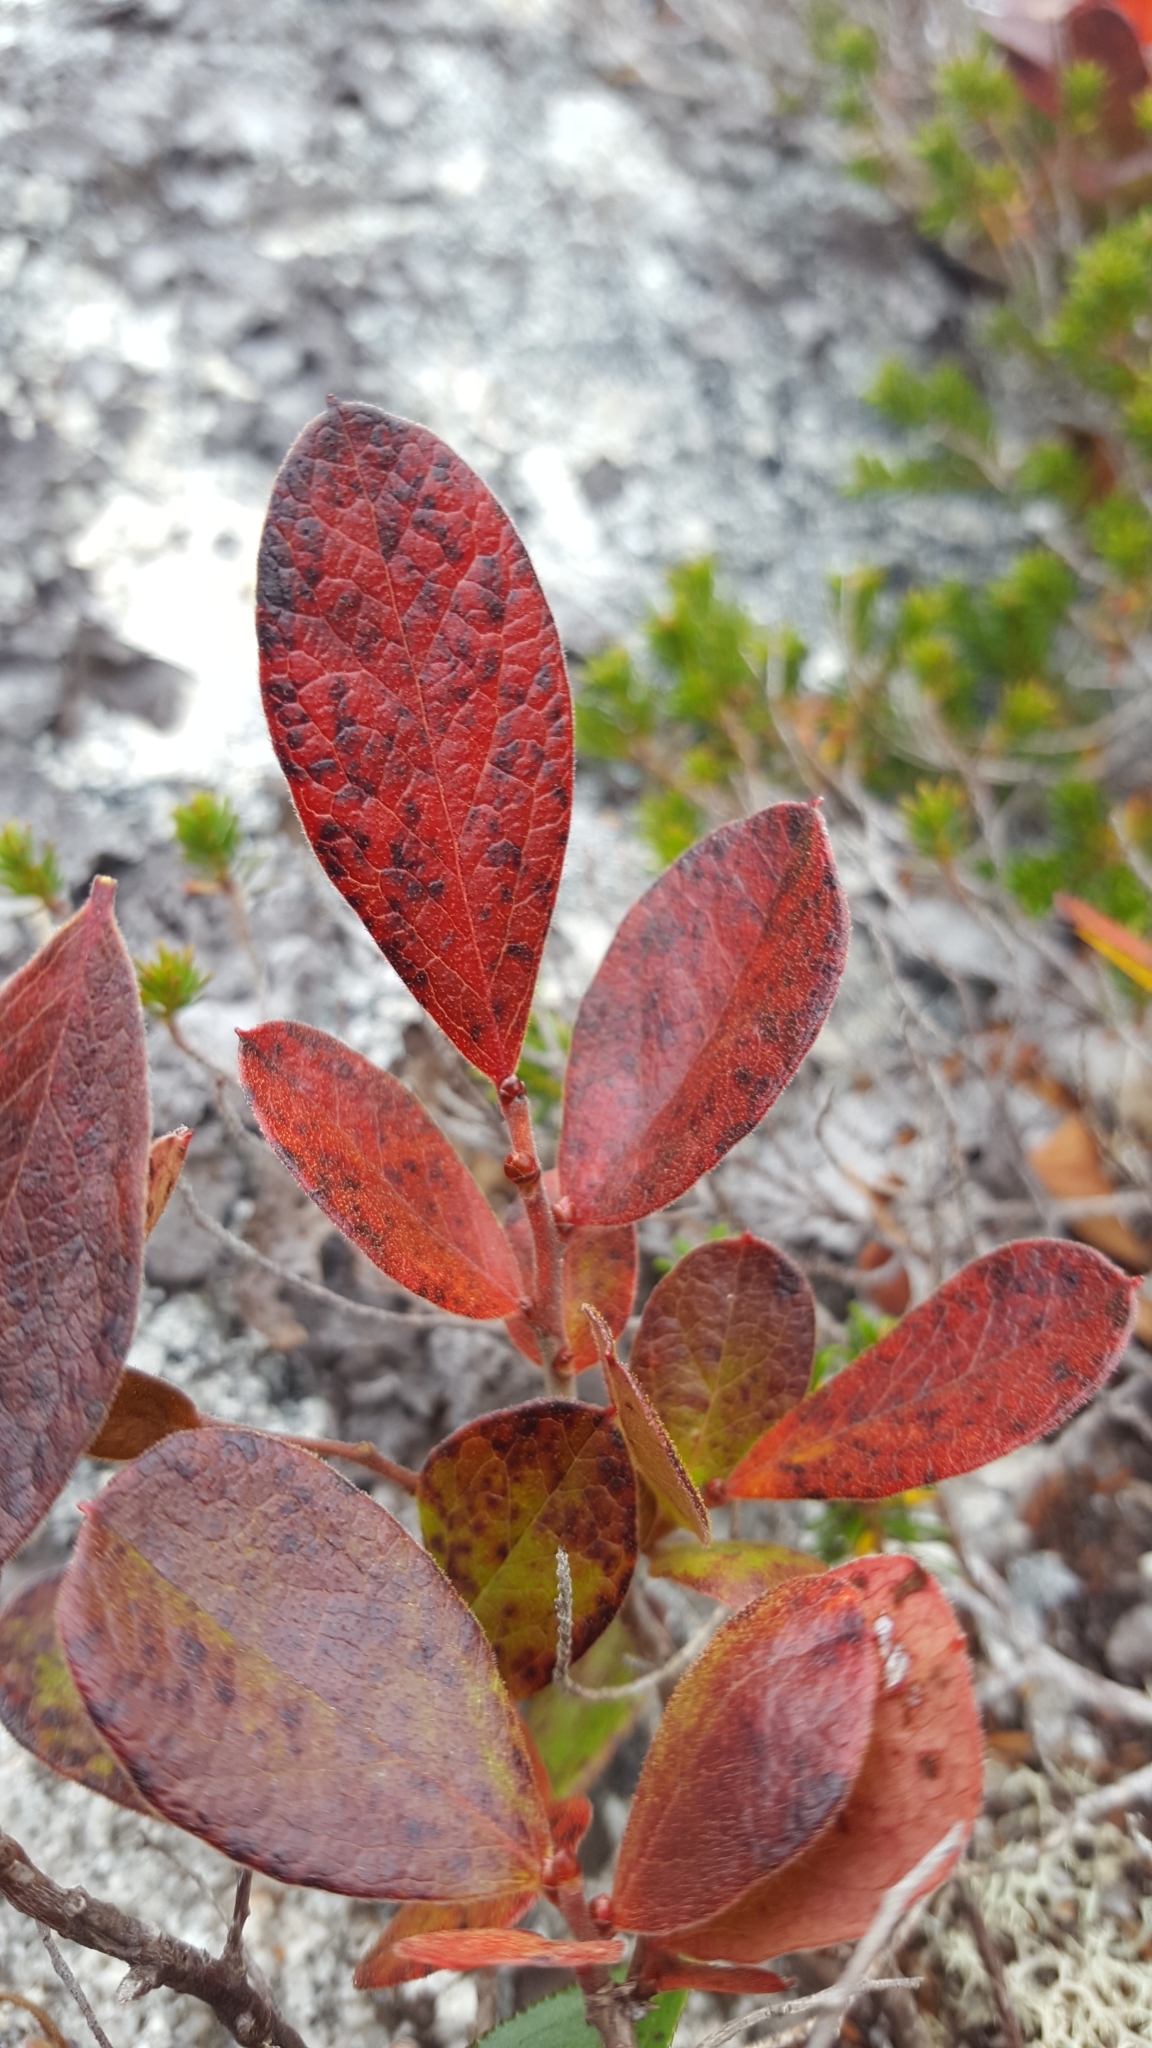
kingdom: Plantae
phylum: Tracheophyta
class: Magnoliopsida
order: Ericales
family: Ericaceae
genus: Gaylussacia
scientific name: Gaylussacia baccata
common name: Black huckleberry
